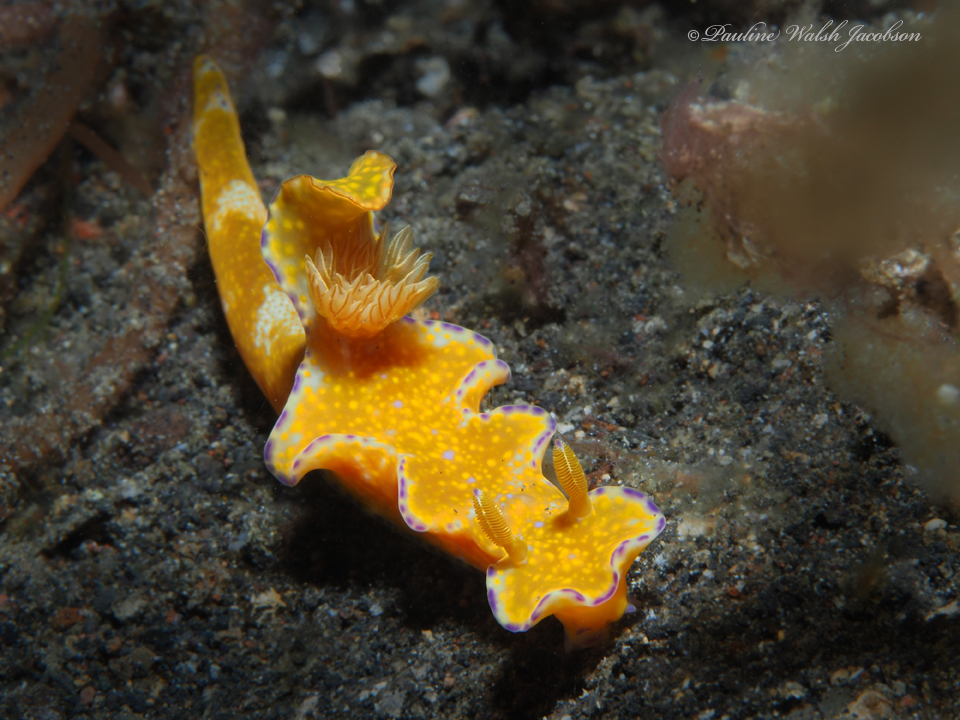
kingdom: Animalia
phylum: Mollusca
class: Gastropoda
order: Nudibranchia
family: Chromodorididae
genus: Ceratosoma
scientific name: Ceratosoma tenue
